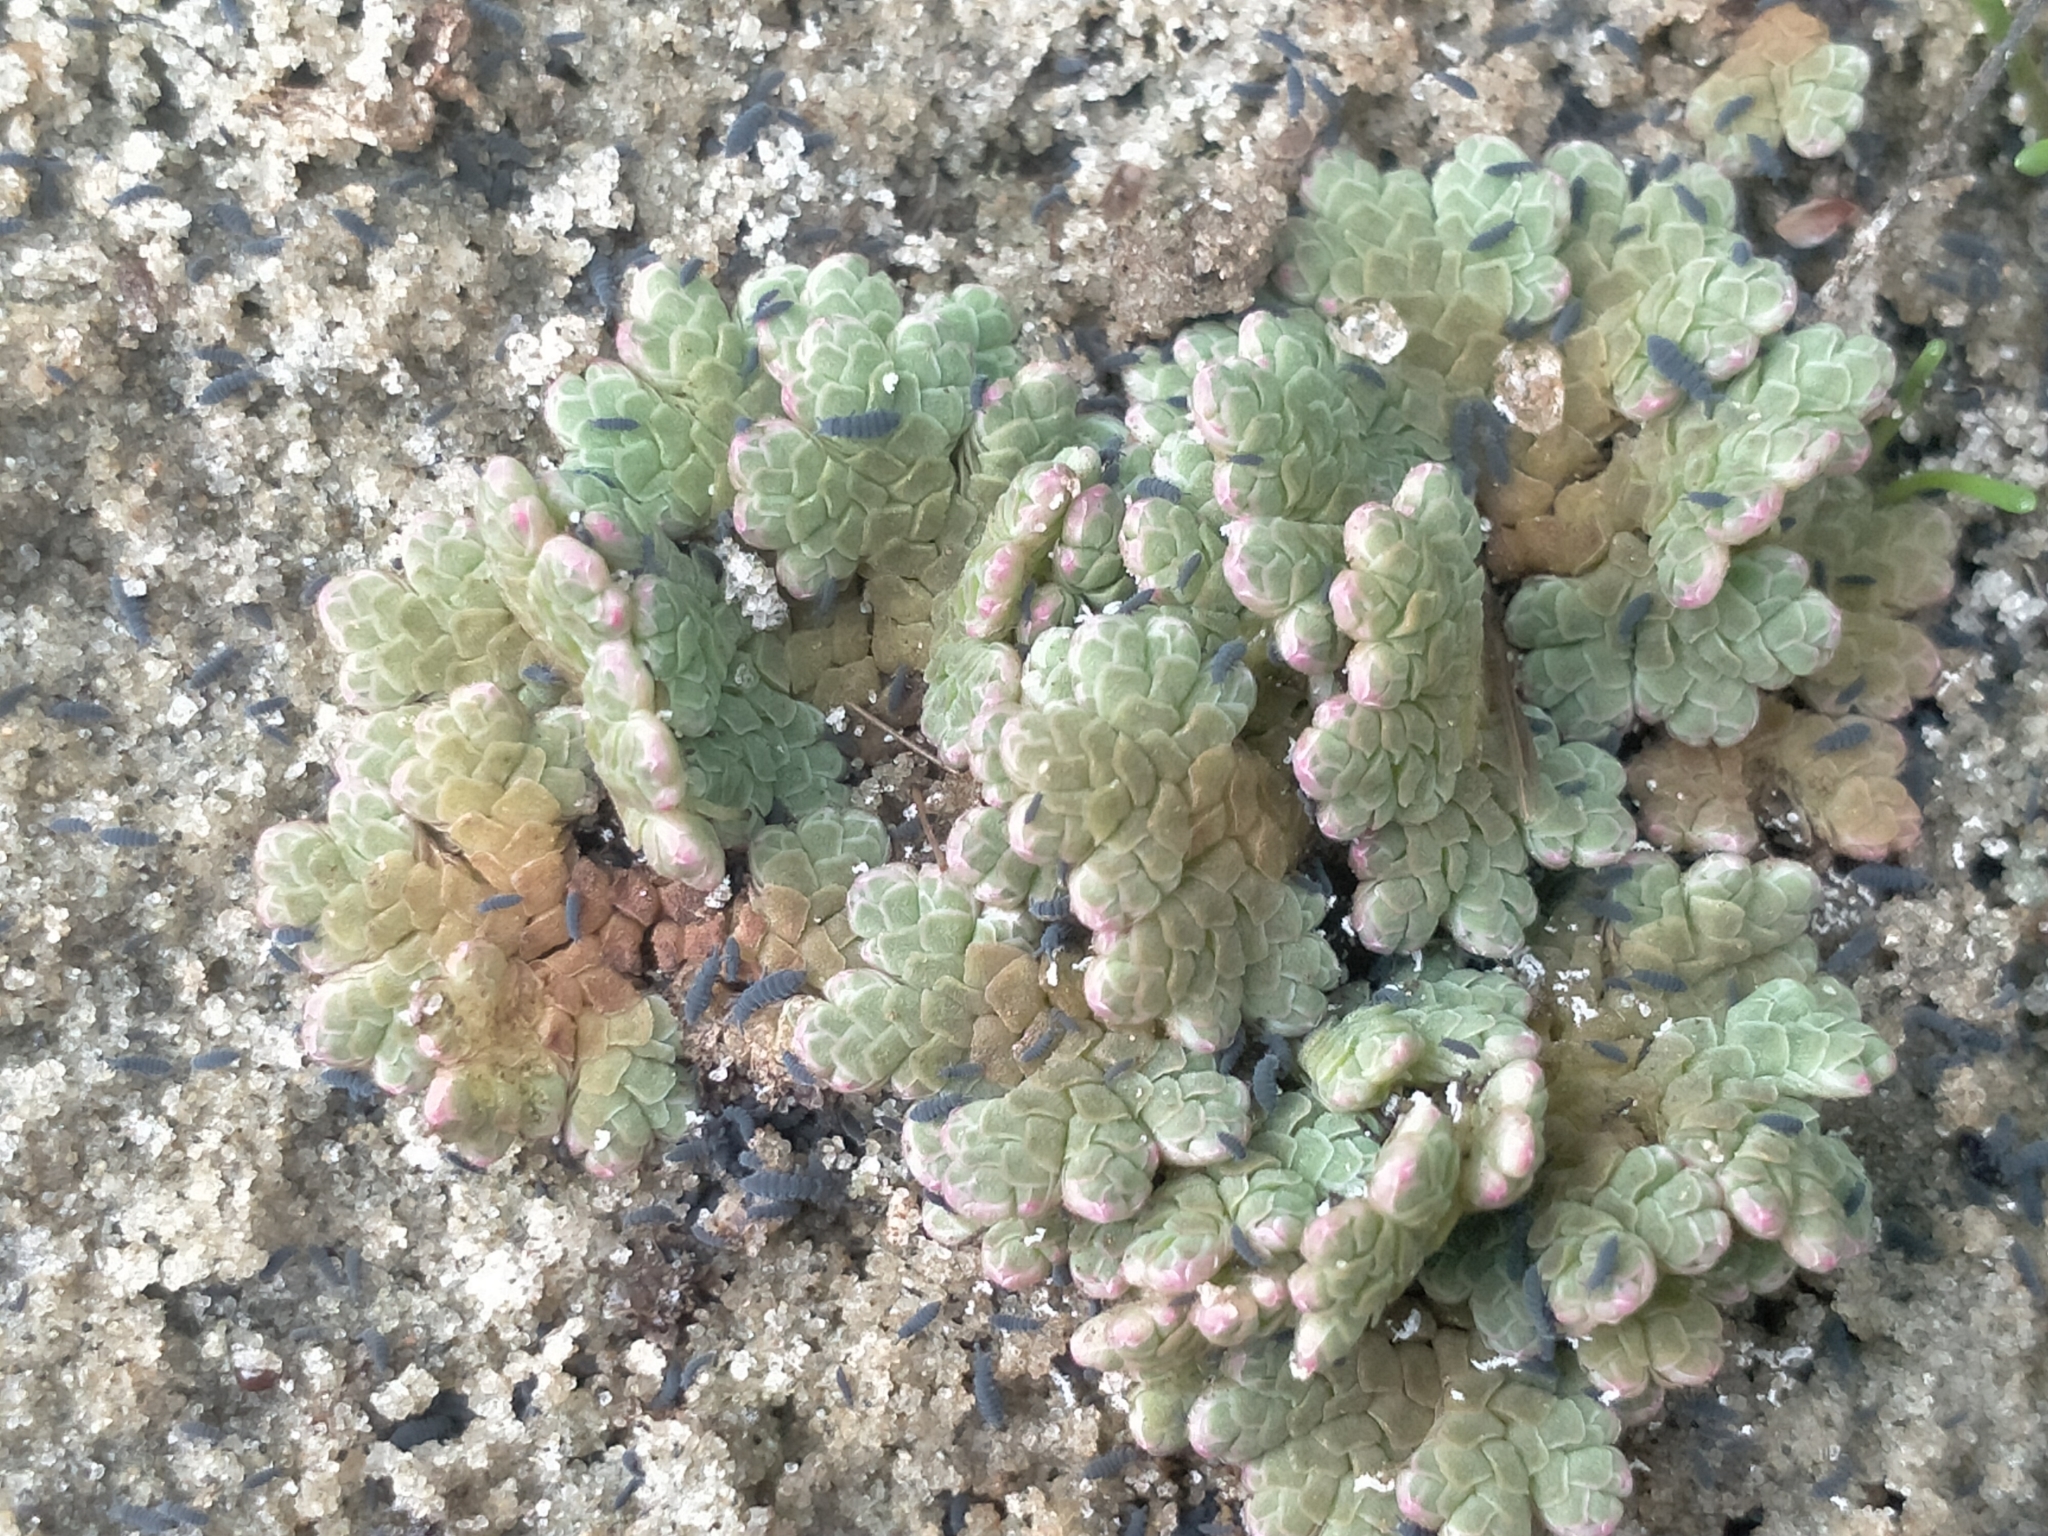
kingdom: Plantae
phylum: Tracheophyta
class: Polypodiopsida
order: Salviniales
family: Salviniaceae
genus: Azolla
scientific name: Azolla rubra
